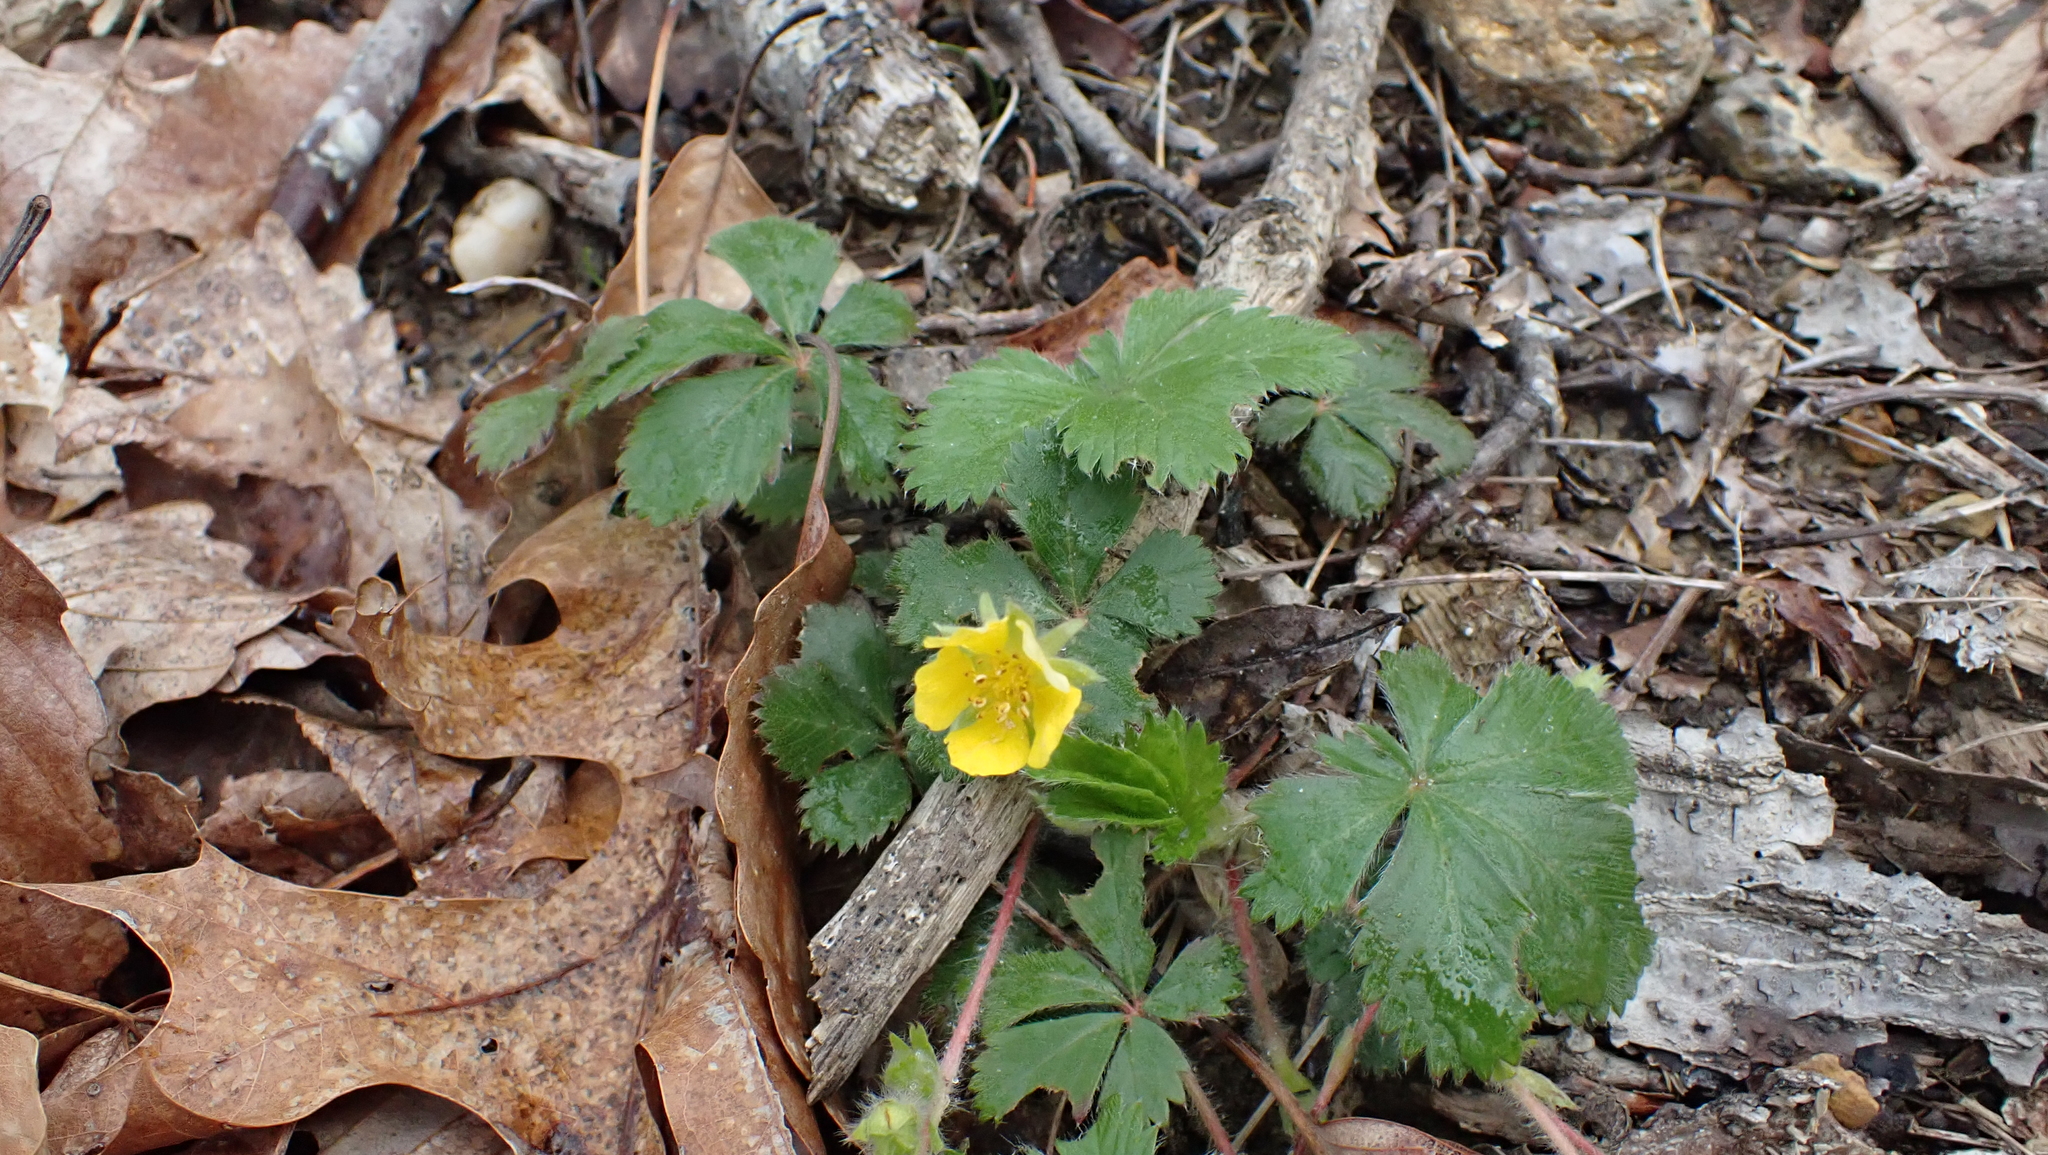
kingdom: Plantae
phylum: Tracheophyta
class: Magnoliopsida
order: Rosales
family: Rosaceae
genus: Potentilla
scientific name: Potentilla canadensis
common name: Canada cinquefoil
